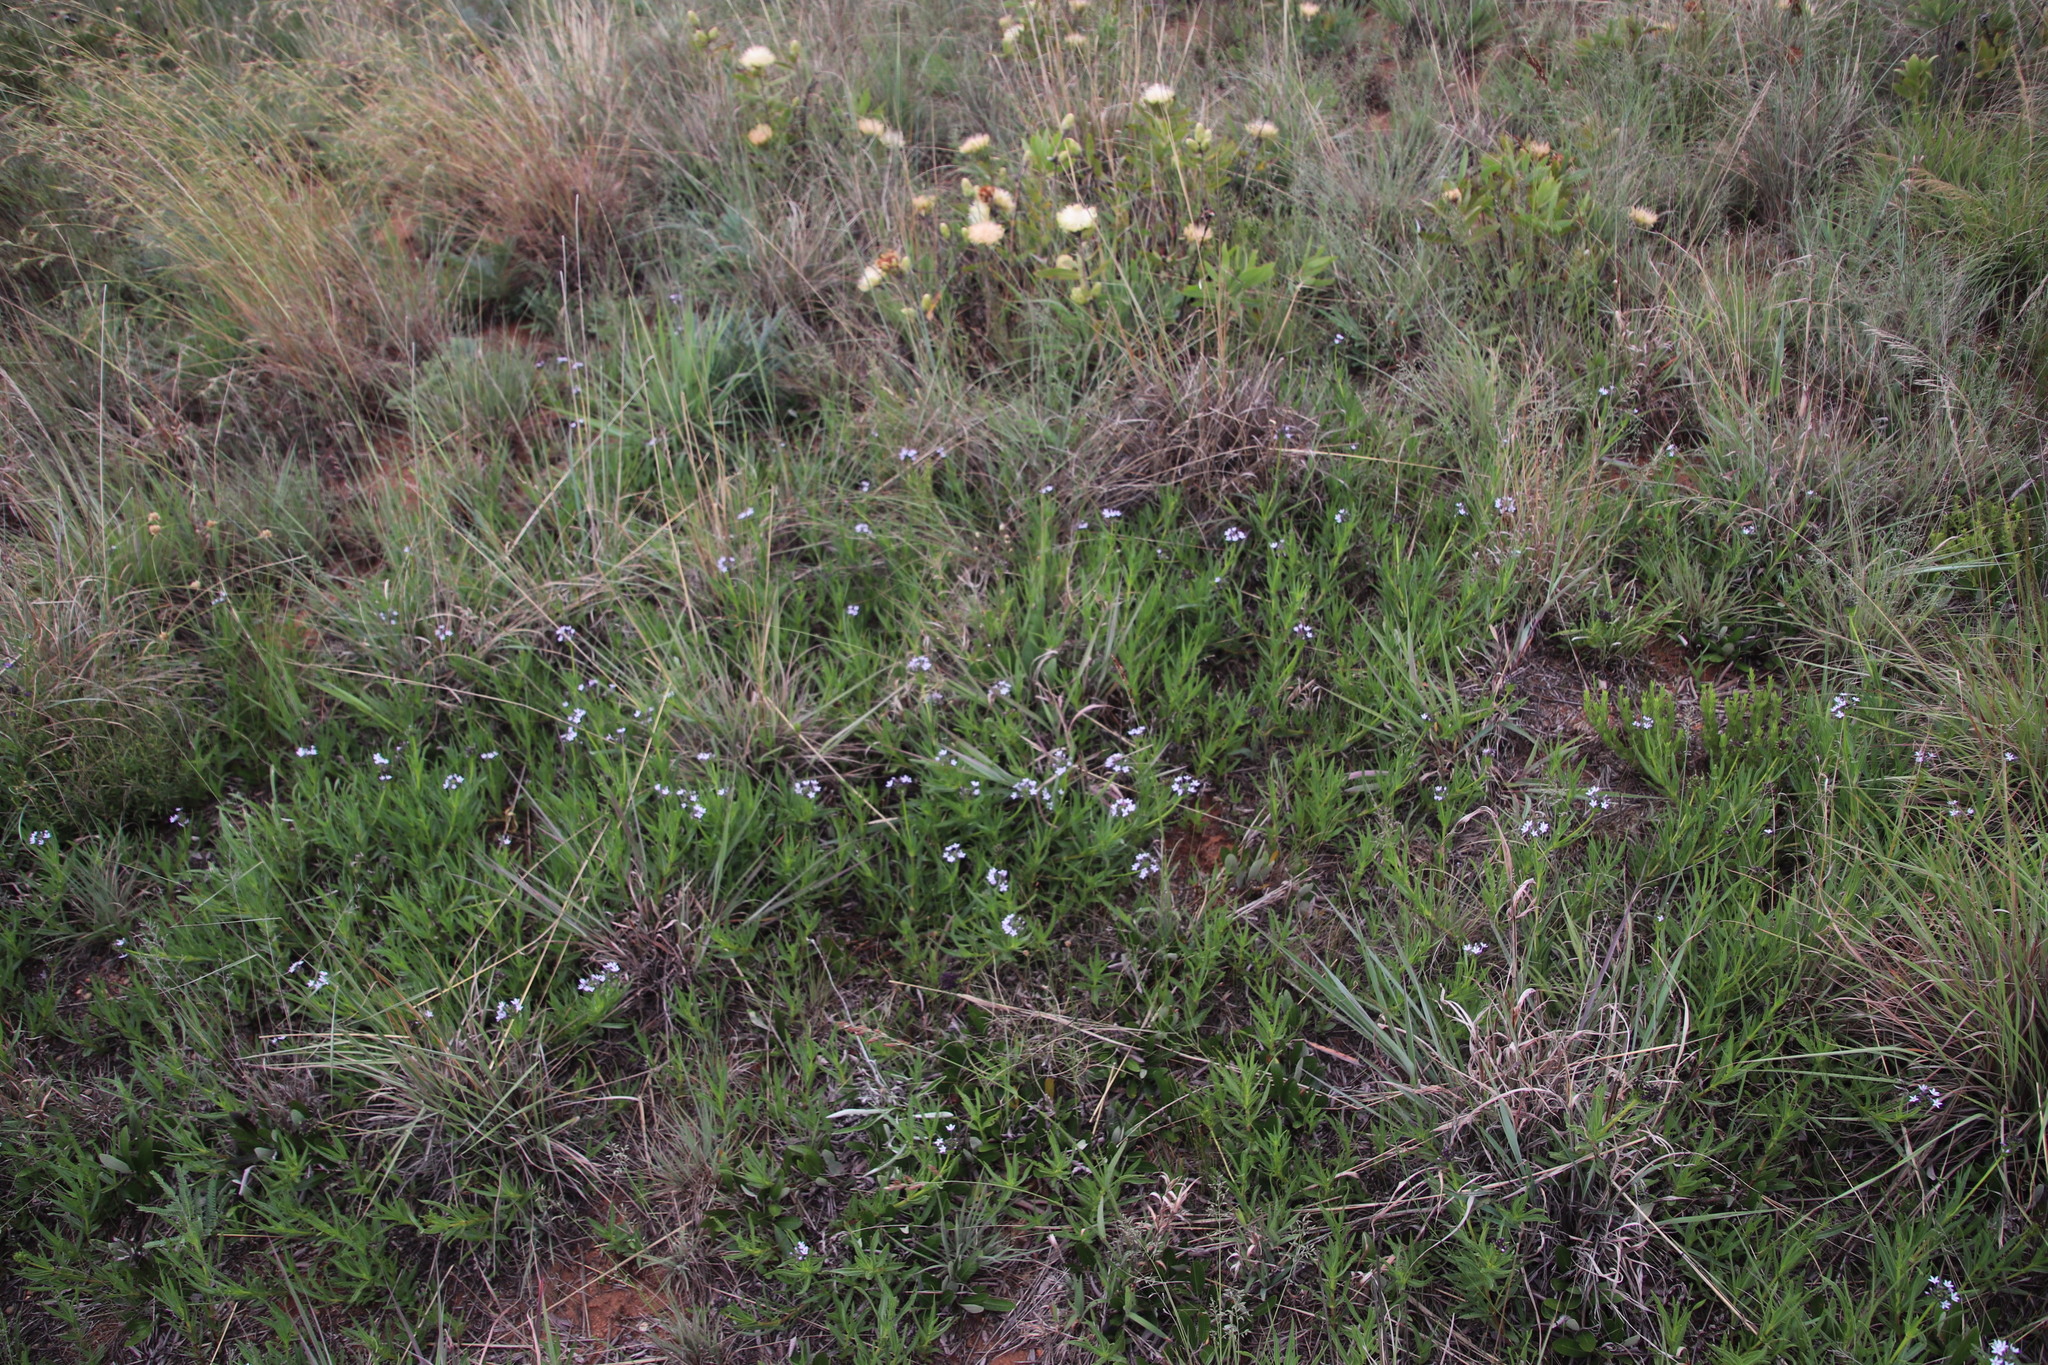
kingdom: Plantae
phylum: Tracheophyta
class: Magnoliopsida
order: Gentianales
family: Rubiaceae
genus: Pentanisia
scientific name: Pentanisia angustifolia
